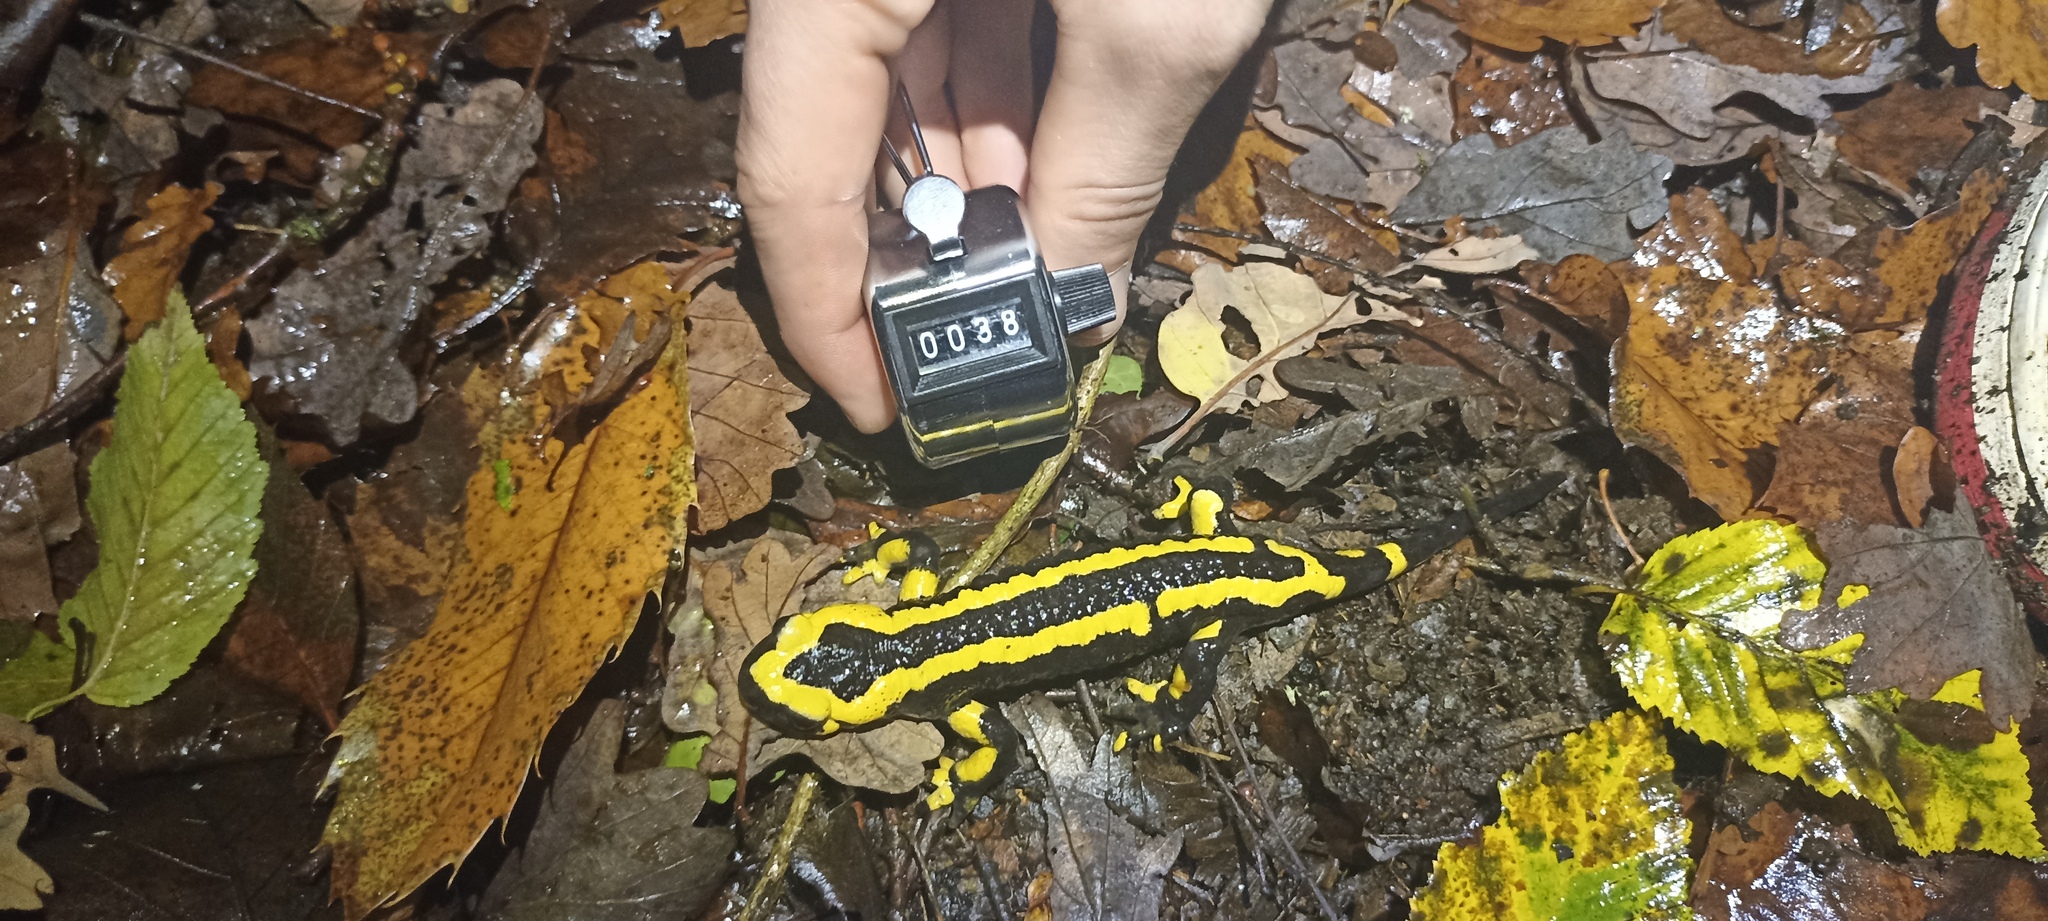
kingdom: Animalia
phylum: Chordata
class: Amphibia
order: Caudata
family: Salamandridae
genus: Salamandra
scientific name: Salamandra salamandra
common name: Fire salamander
